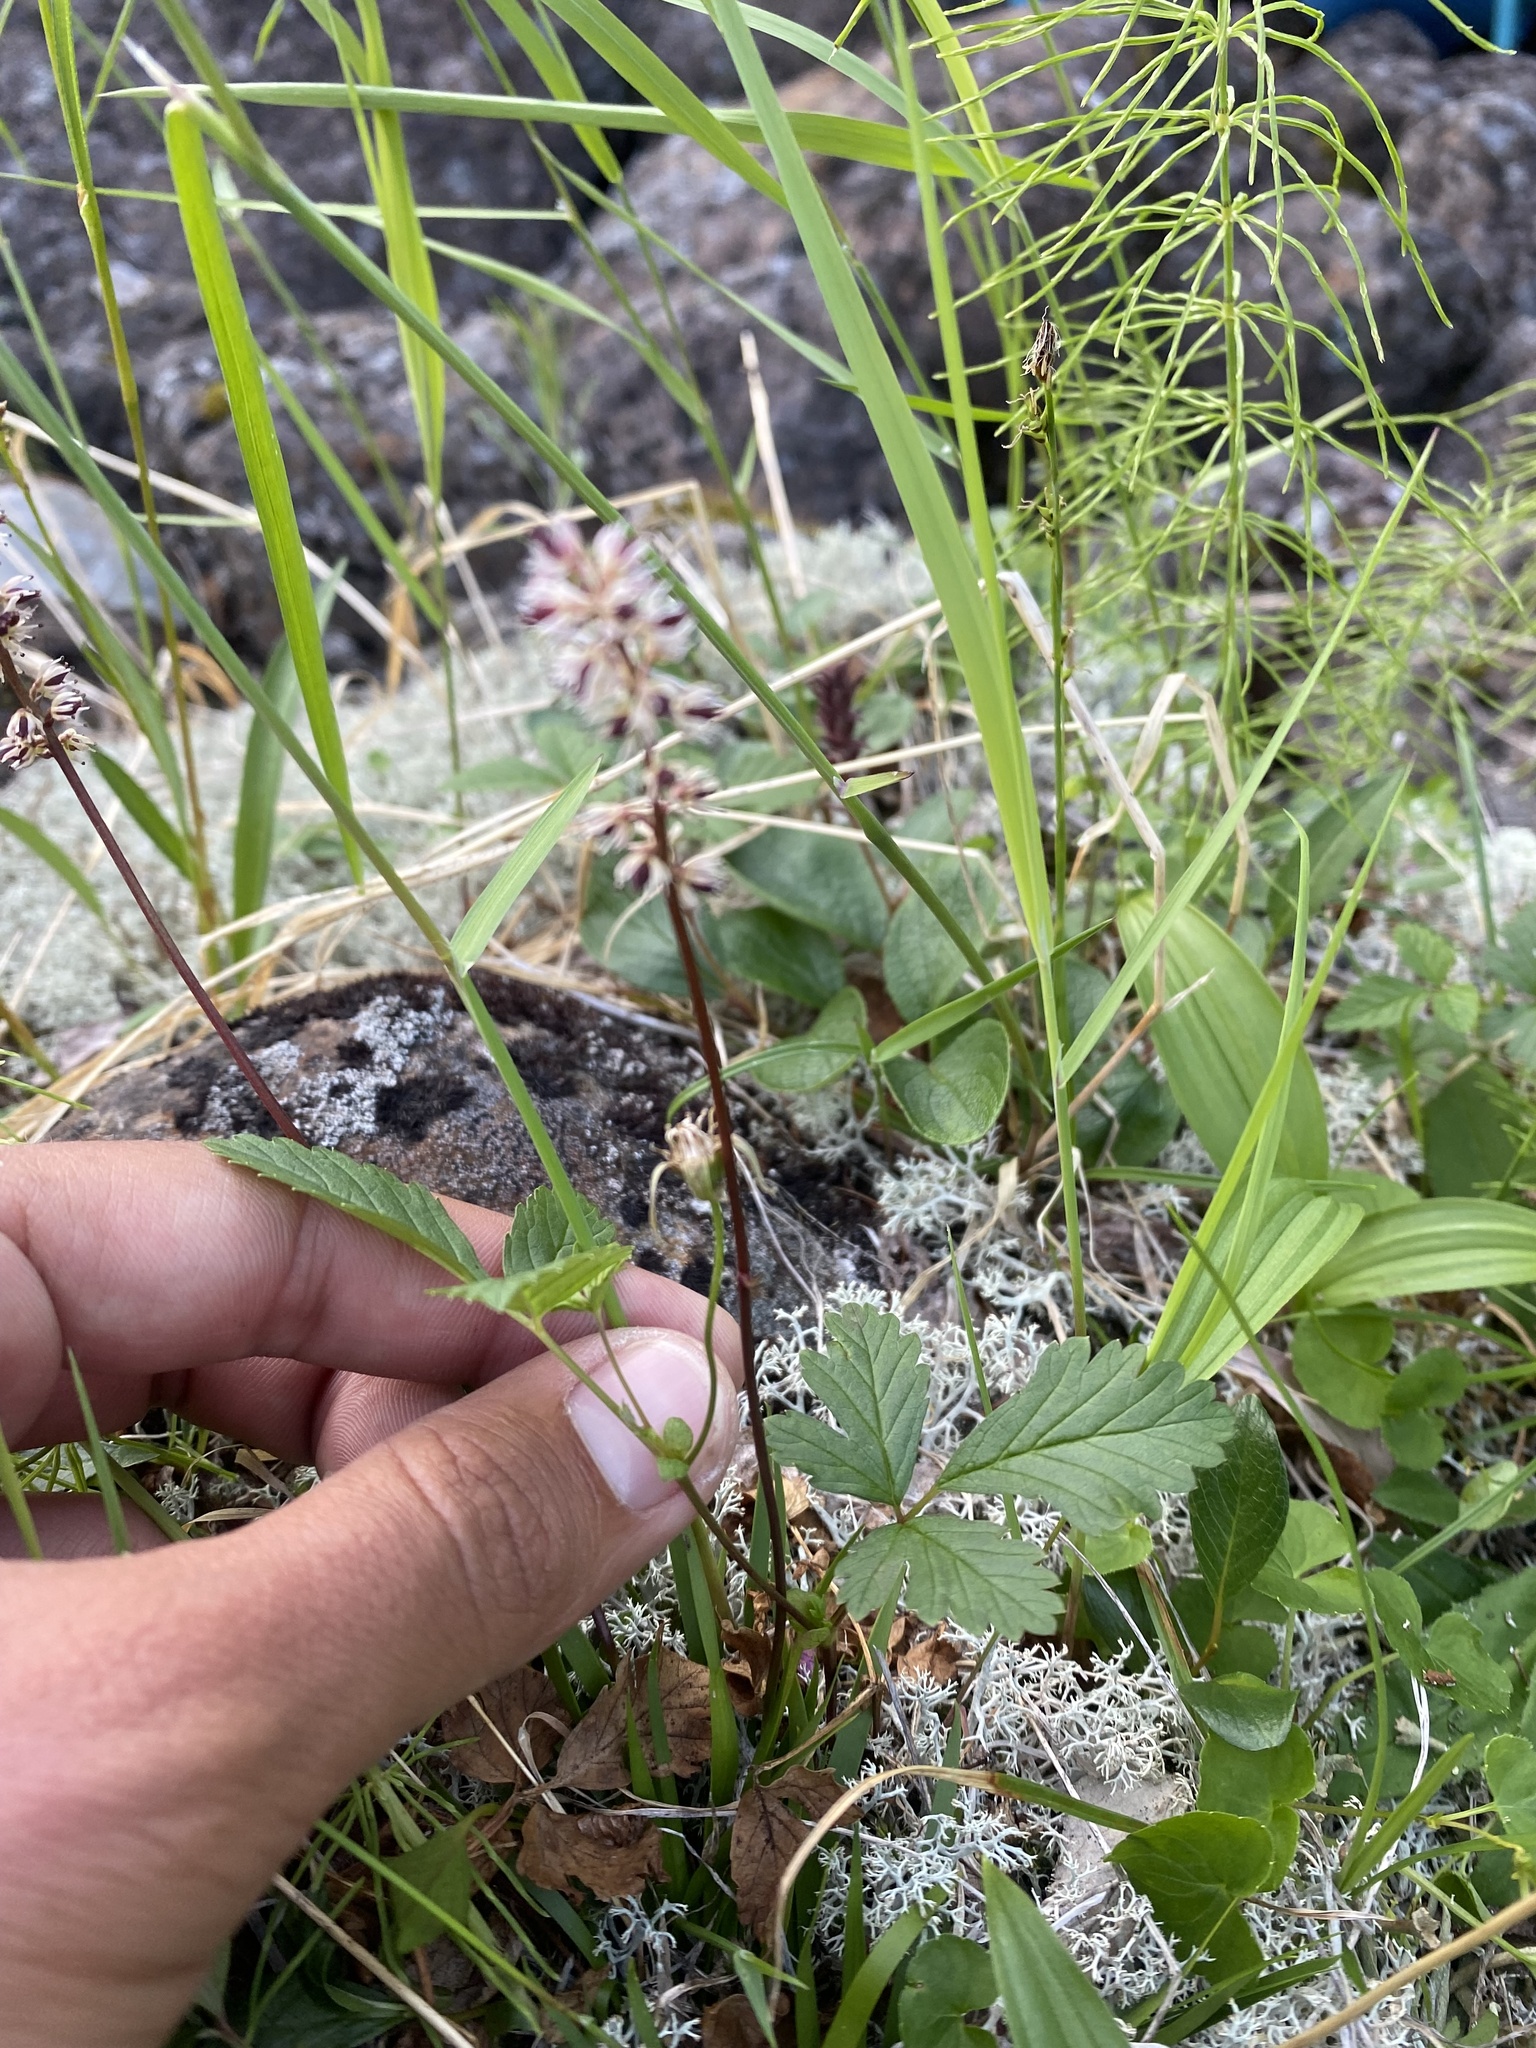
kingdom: Plantae
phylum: Tracheophyta
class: Liliopsida
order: Alismatales
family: Tofieldiaceae
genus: Tofieldia
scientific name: Tofieldia coccinea
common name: Northern false asphodel
